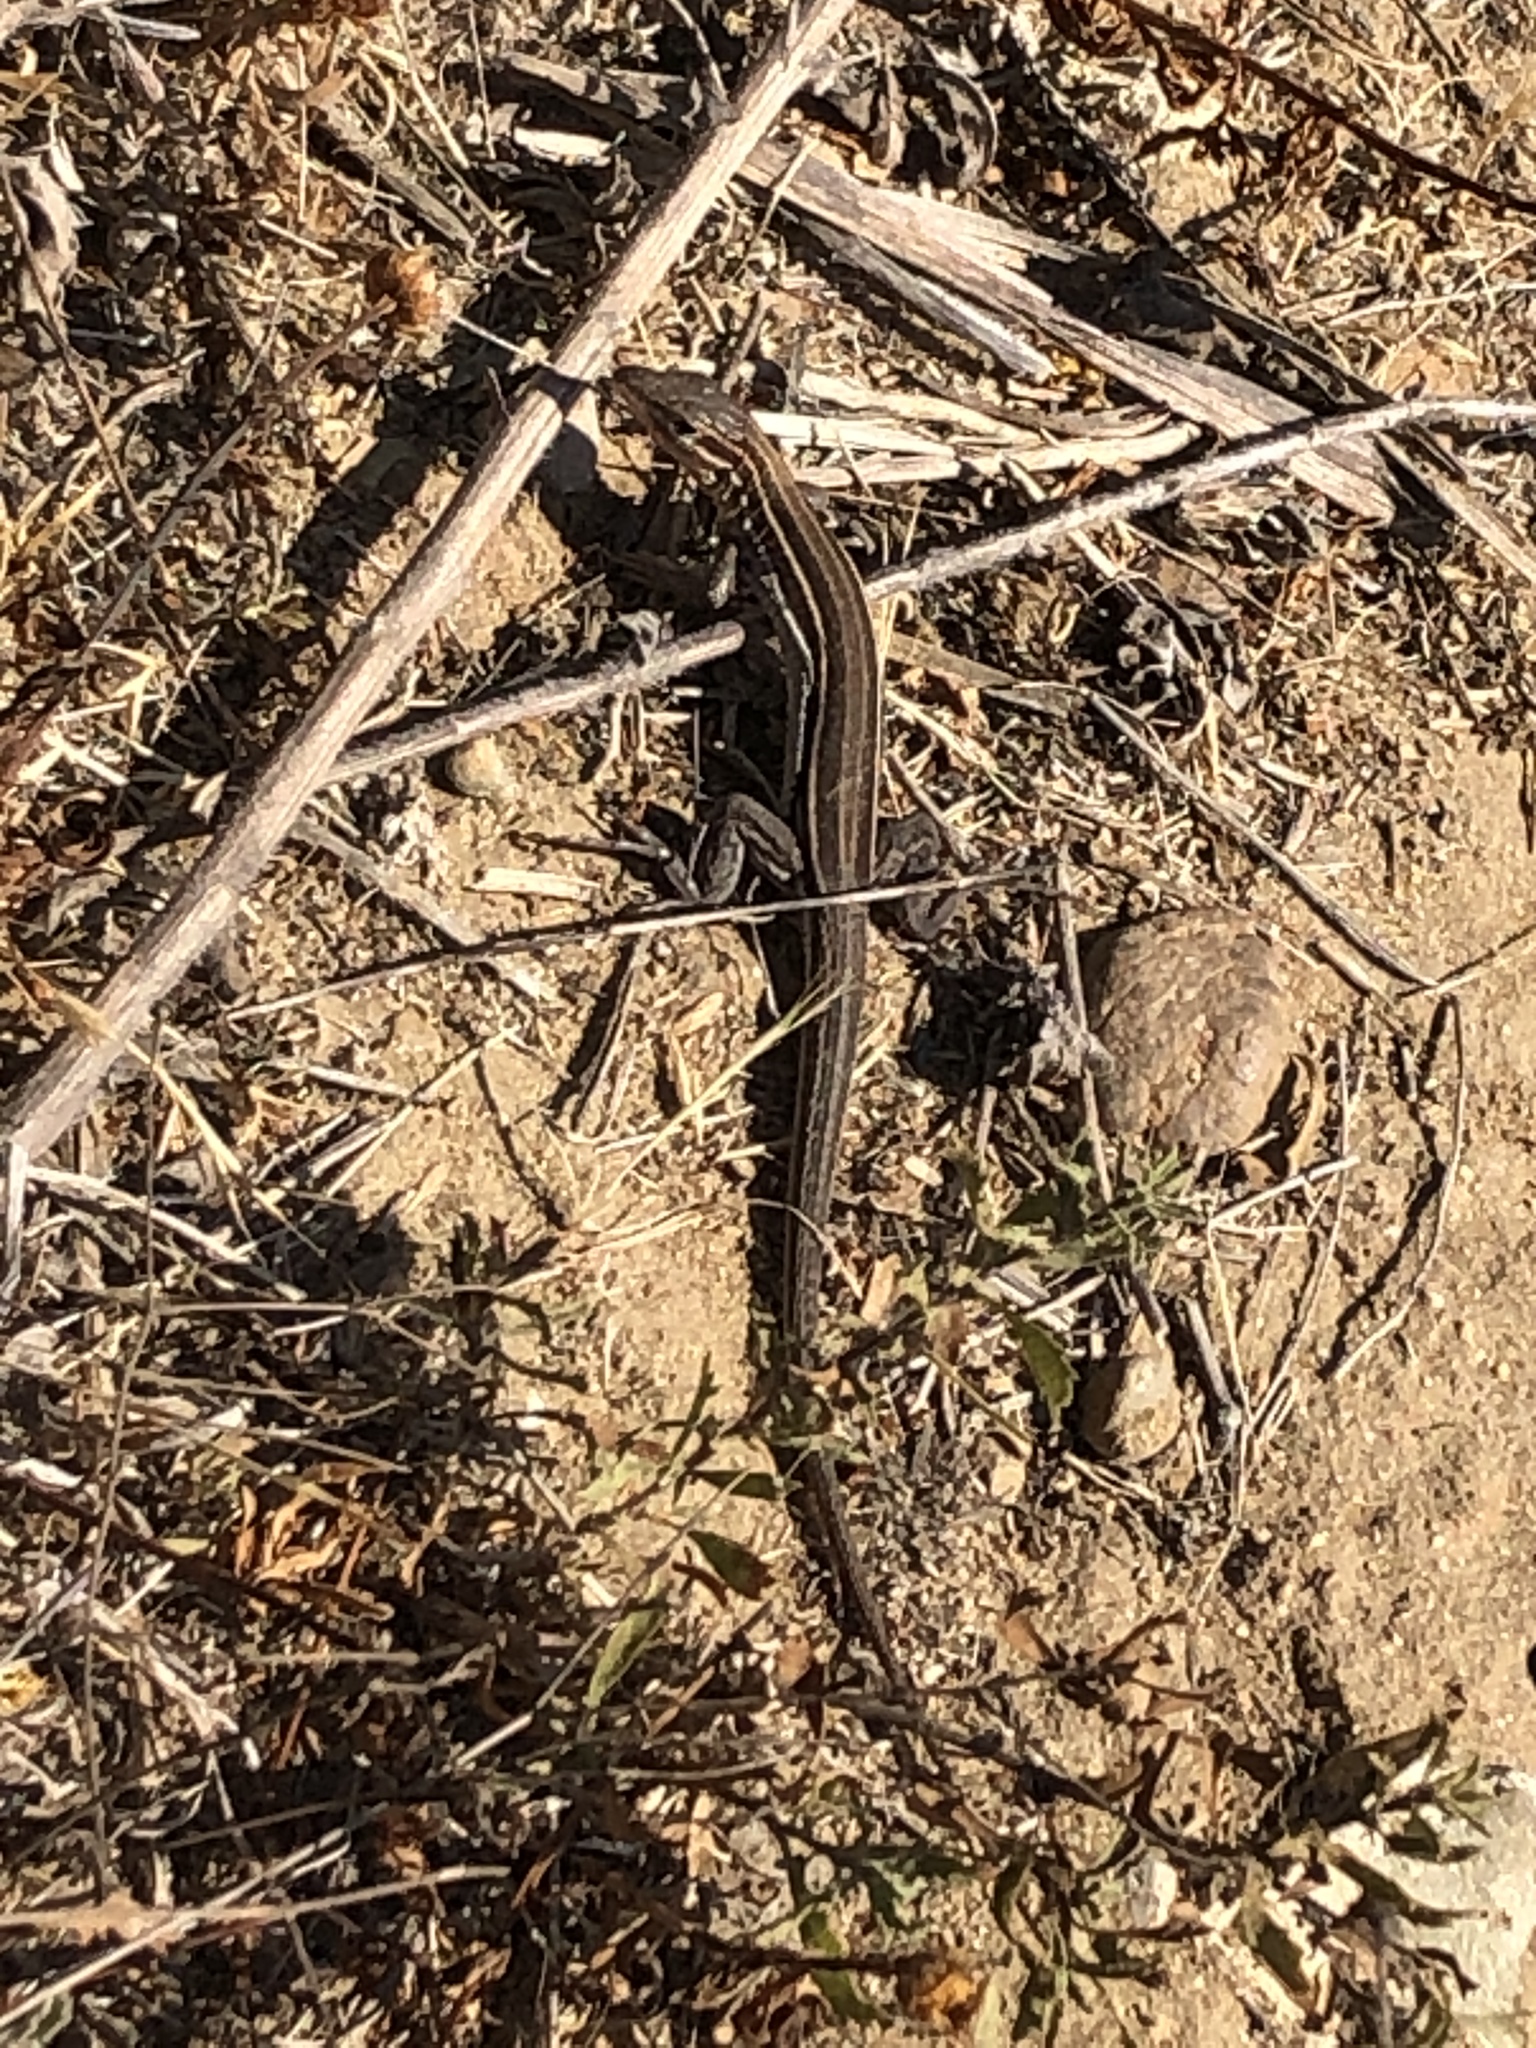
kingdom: Animalia
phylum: Chordata
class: Squamata
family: Teiidae
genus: Aspidoscelis
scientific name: Aspidoscelis hyperythrus
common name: Orange-throated race-runner
